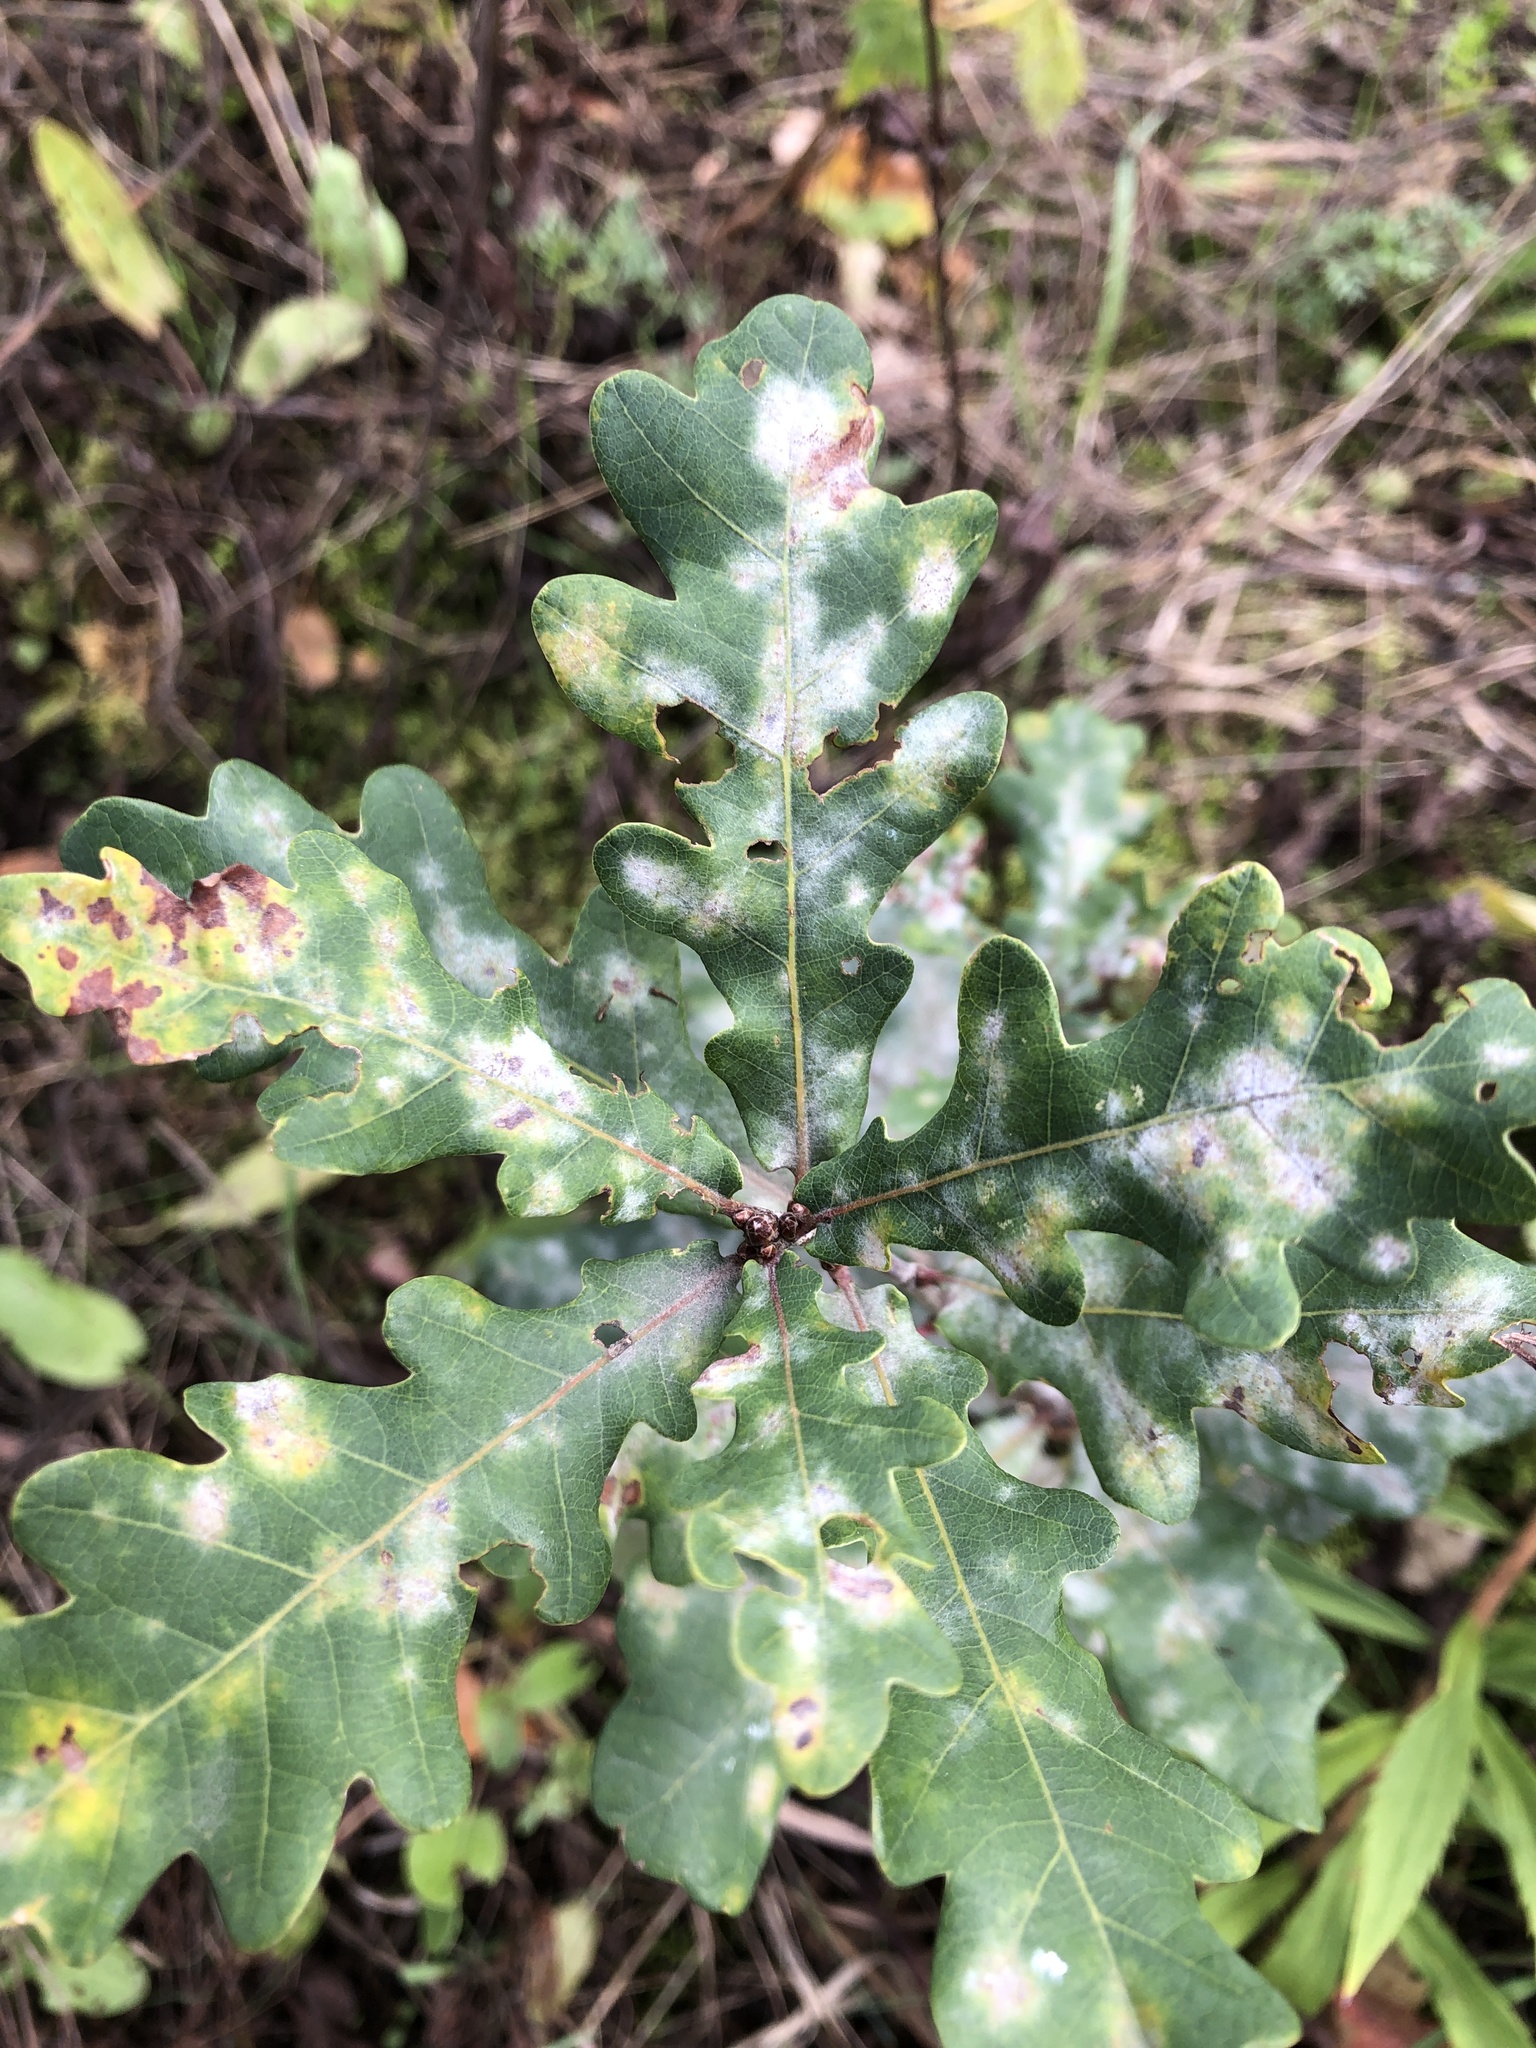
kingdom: Fungi
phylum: Ascomycota
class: Leotiomycetes
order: Helotiales
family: Erysiphaceae
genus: Erysiphe
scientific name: Erysiphe
